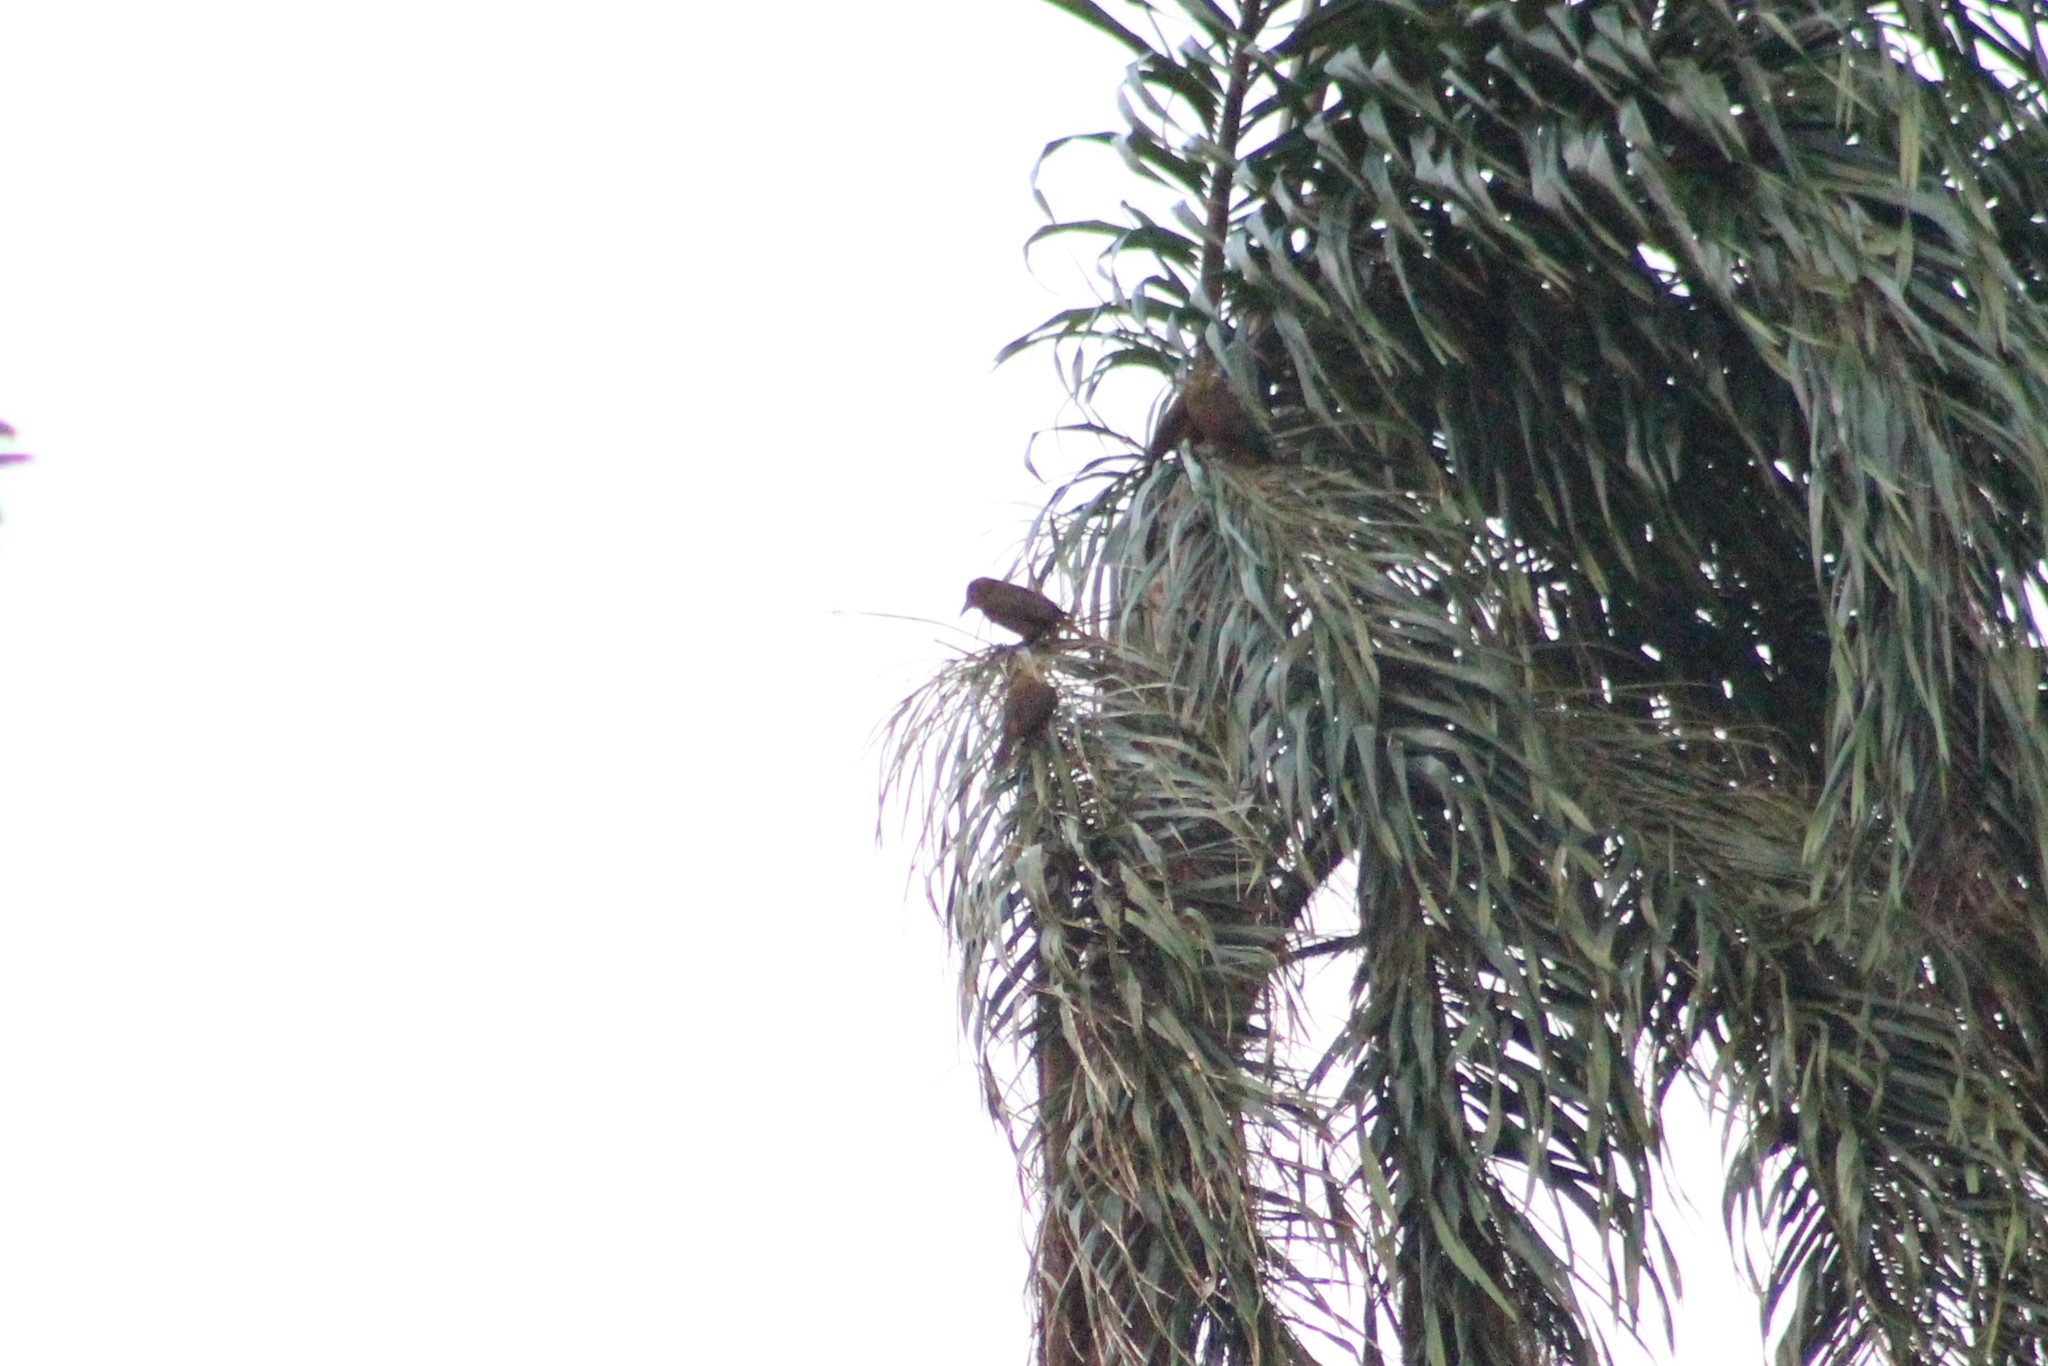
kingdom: Animalia
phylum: Chordata
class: Aves
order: Passeriformes
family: Icteridae
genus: Psarocolius
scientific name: Psarocolius angustifrons
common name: Russet-backed oropendola
